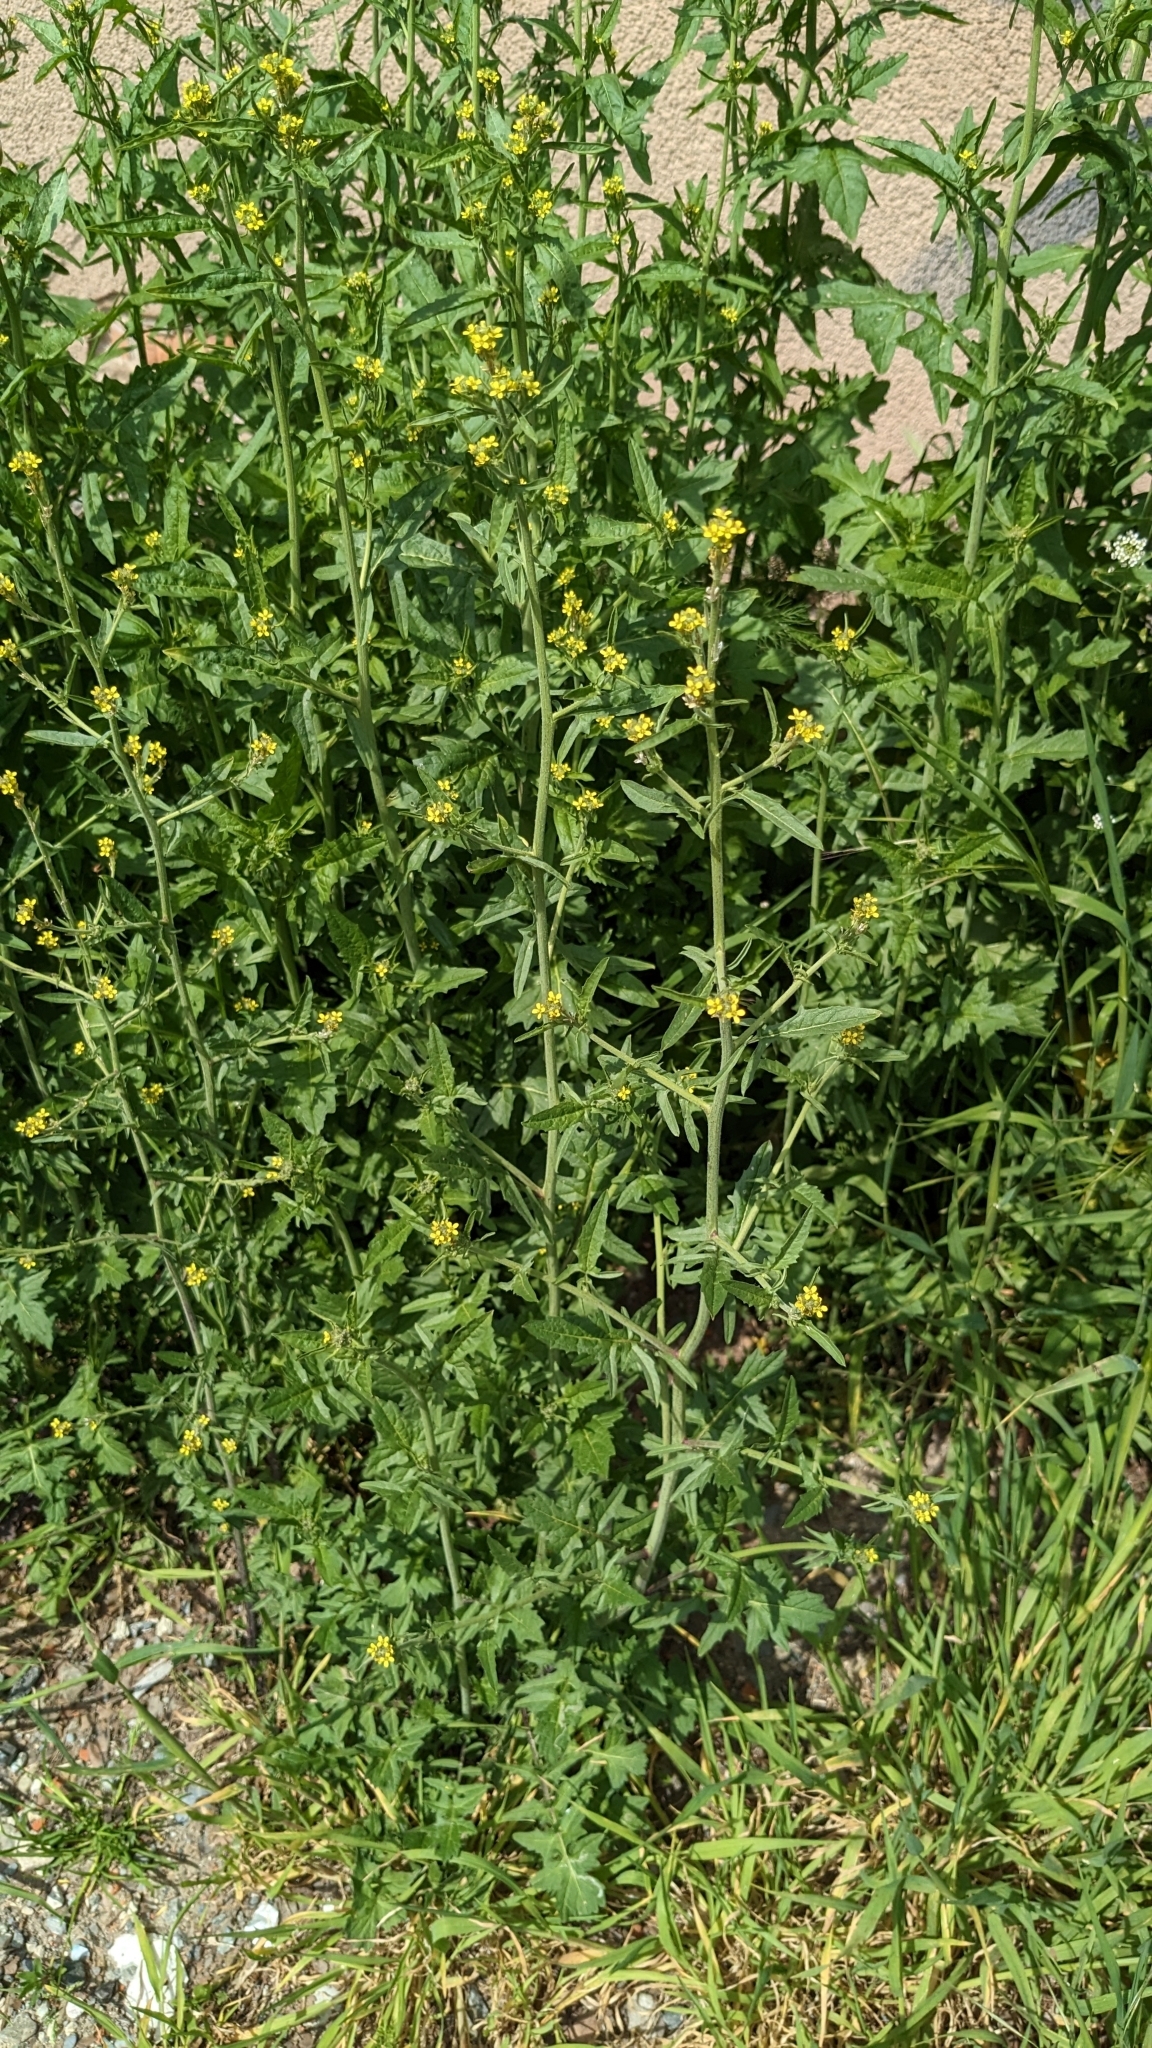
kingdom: Plantae
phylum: Tracheophyta
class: Magnoliopsida
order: Brassicales
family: Brassicaceae
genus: Sisymbrium
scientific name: Sisymbrium officinale
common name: Hedge mustard
